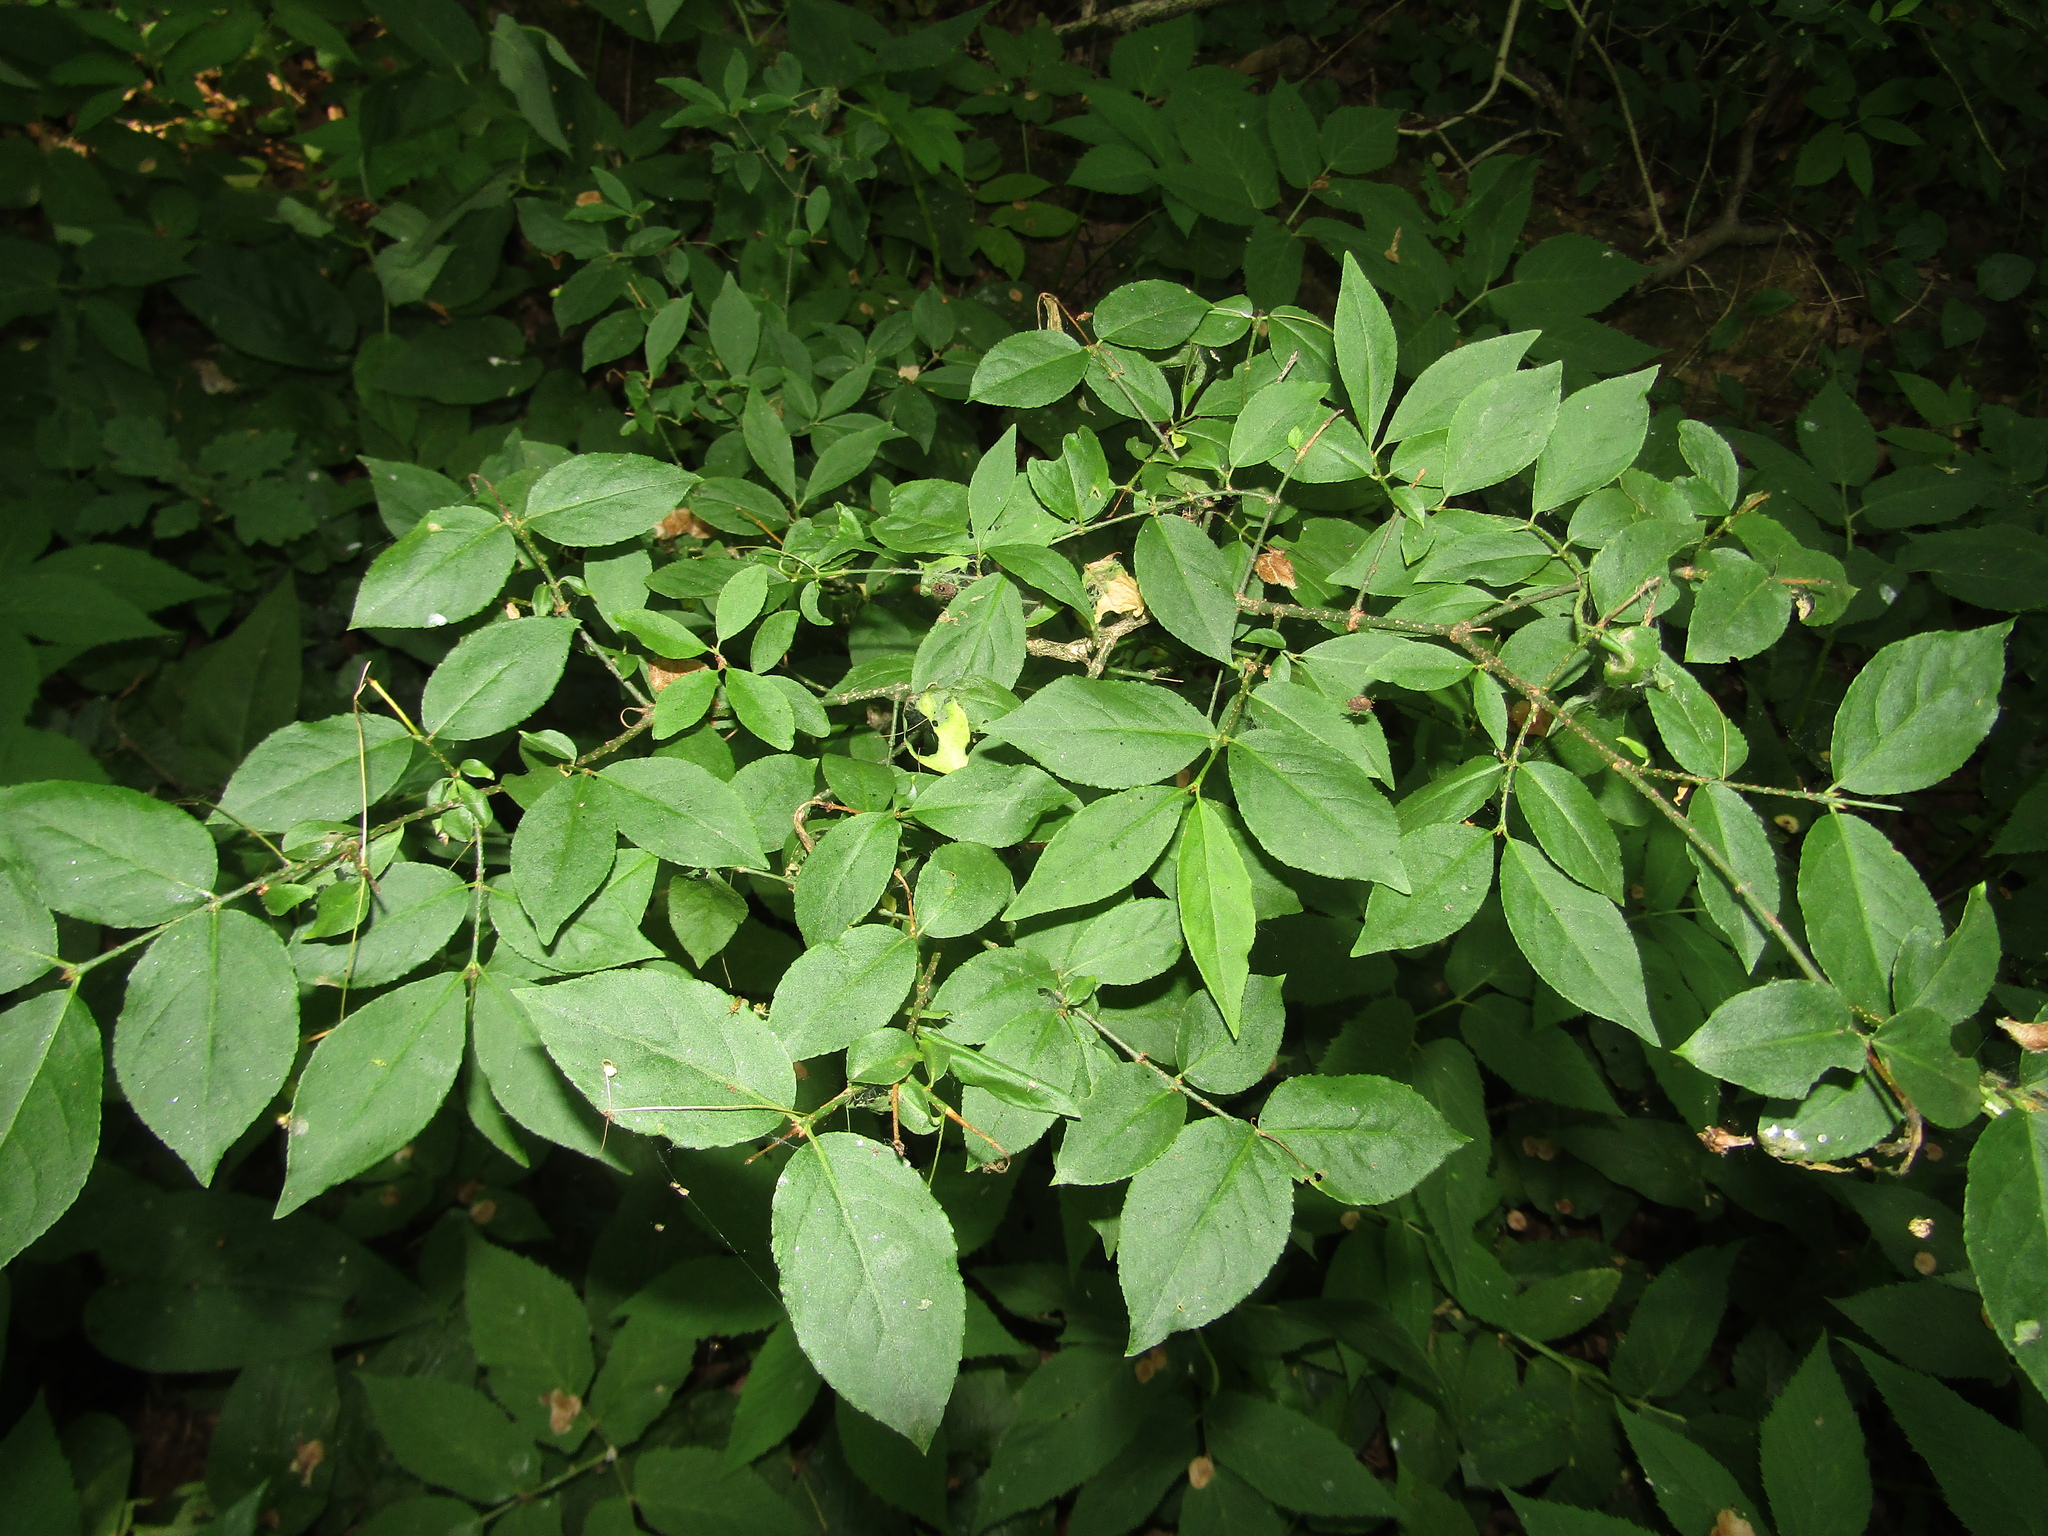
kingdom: Plantae
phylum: Tracheophyta
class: Magnoliopsida
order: Celastrales
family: Celastraceae
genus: Euonymus
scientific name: Euonymus verrucosus
